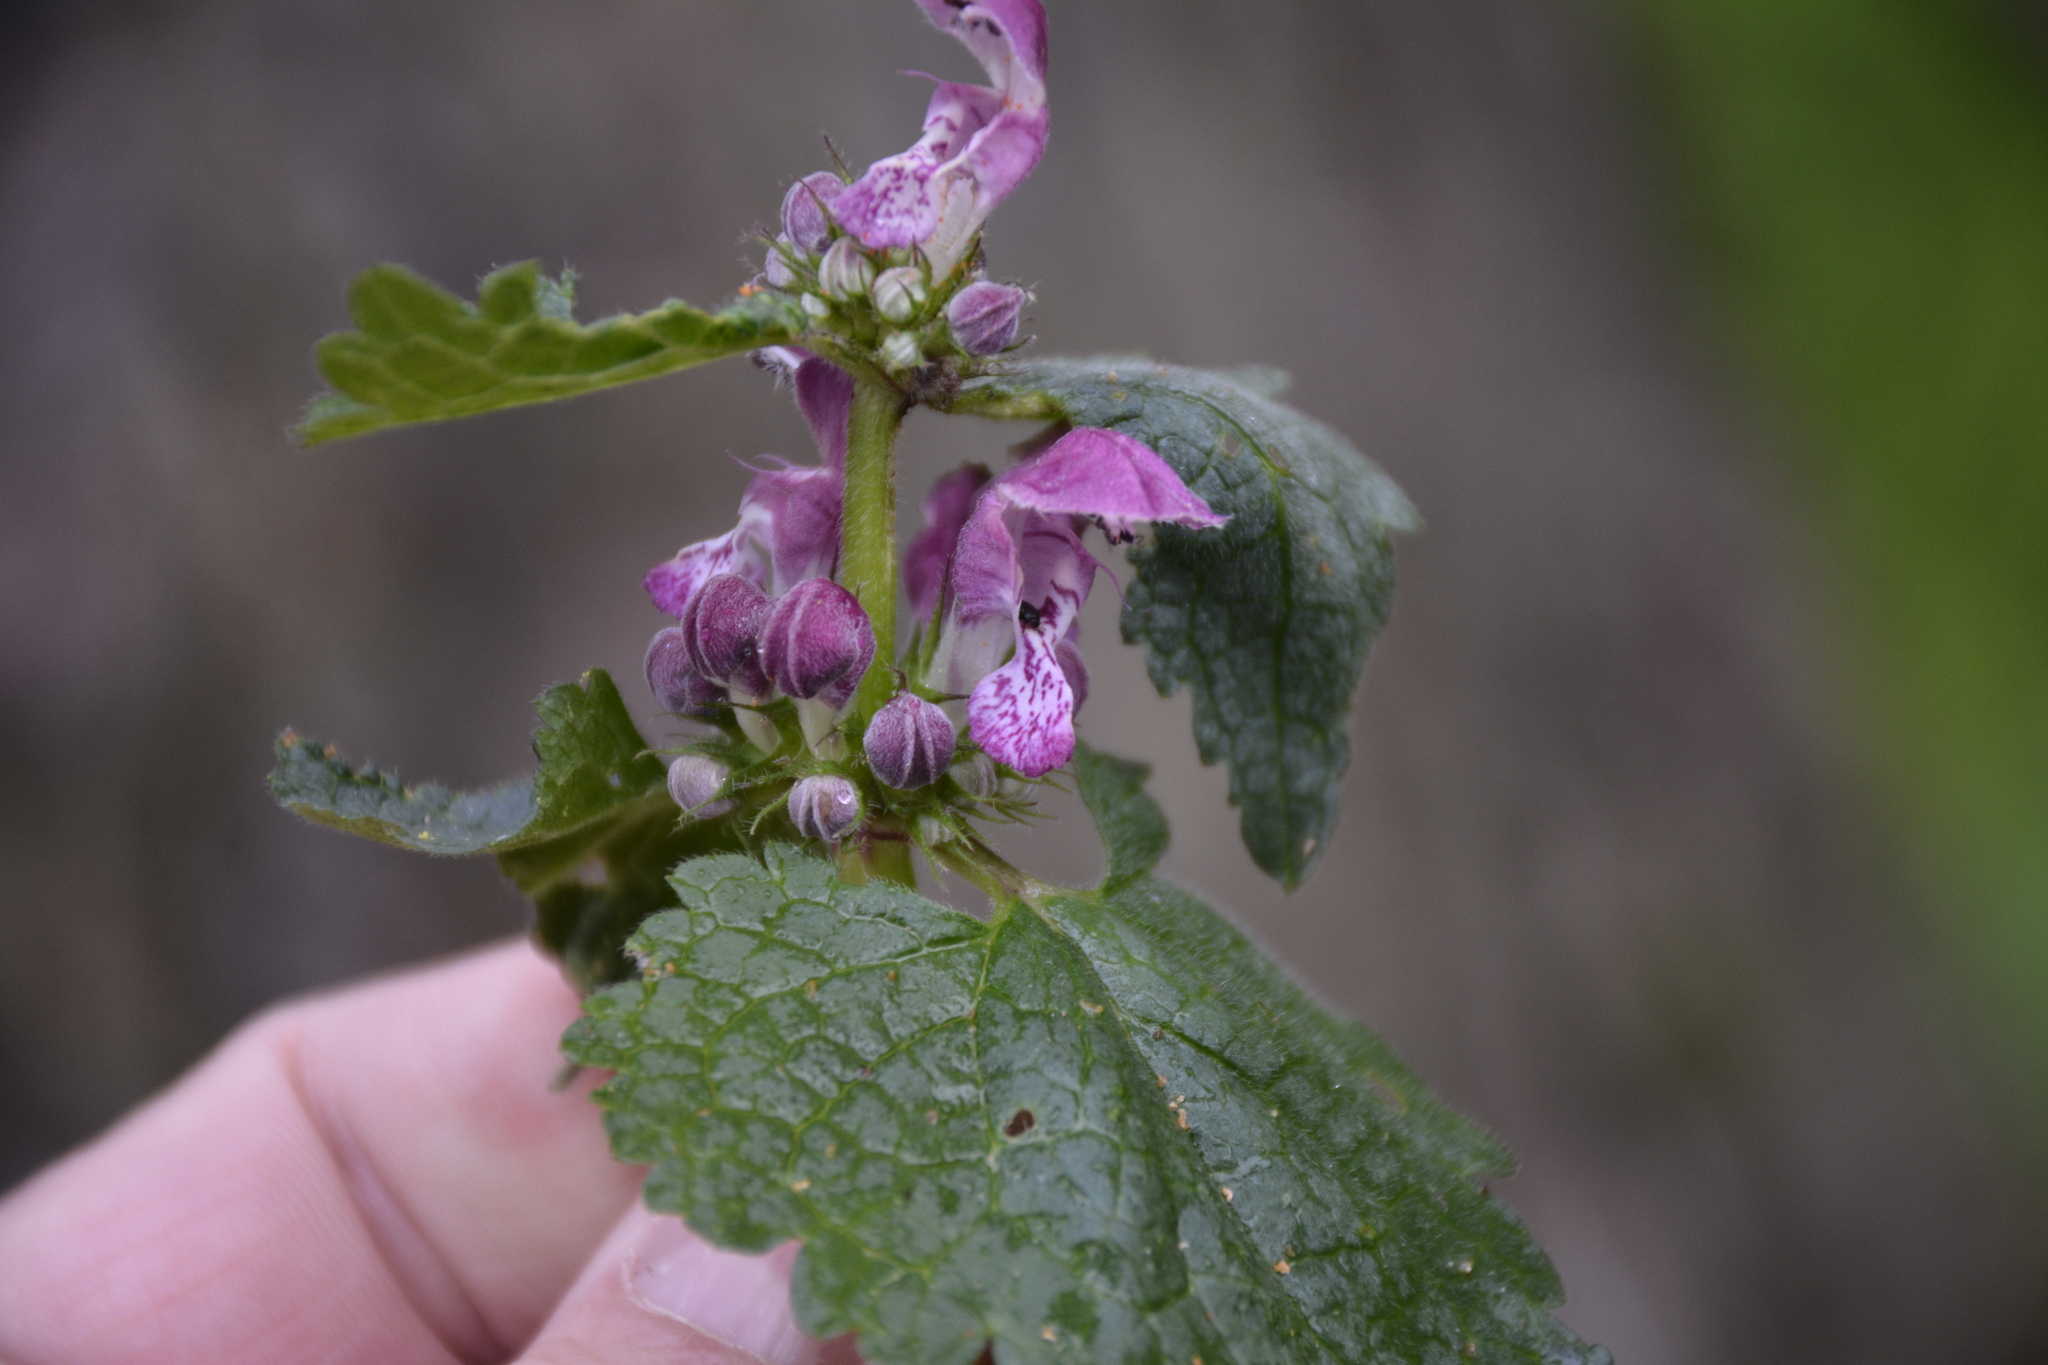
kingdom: Plantae
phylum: Tracheophyta
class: Magnoliopsida
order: Lamiales
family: Lamiaceae
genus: Lamium
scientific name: Lamium maculatum
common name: Spotted dead-nettle
